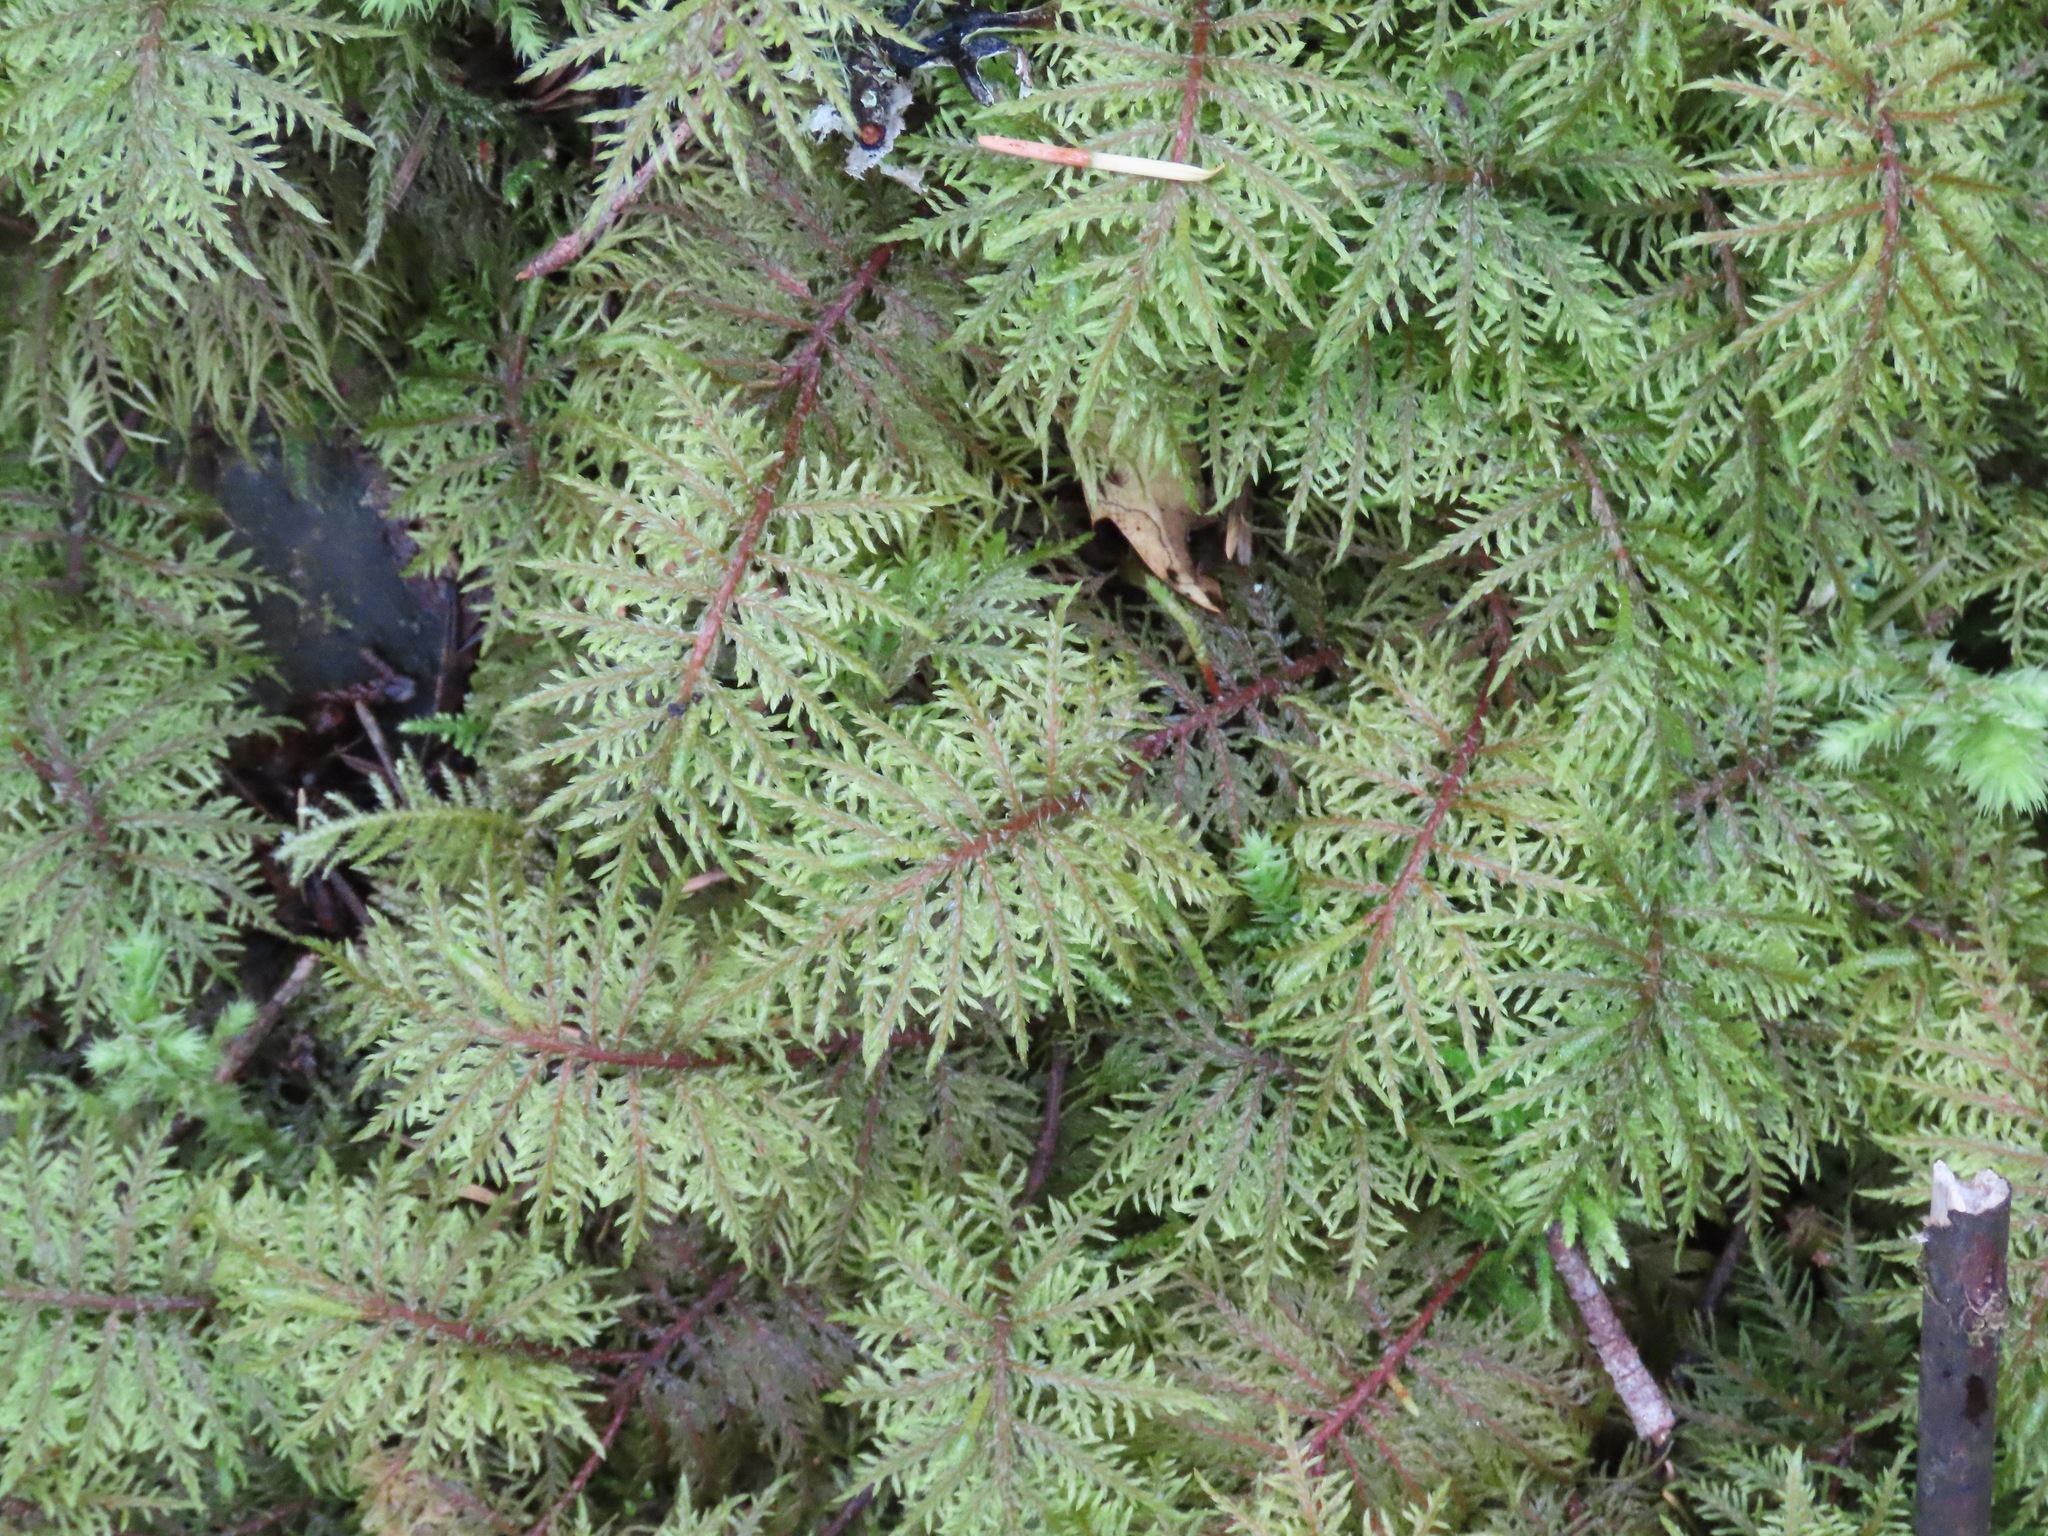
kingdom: Plantae
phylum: Bryophyta
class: Bryopsida
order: Hypnales
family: Hylocomiaceae
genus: Hylocomium
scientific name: Hylocomium splendens
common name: Stairstep moss
